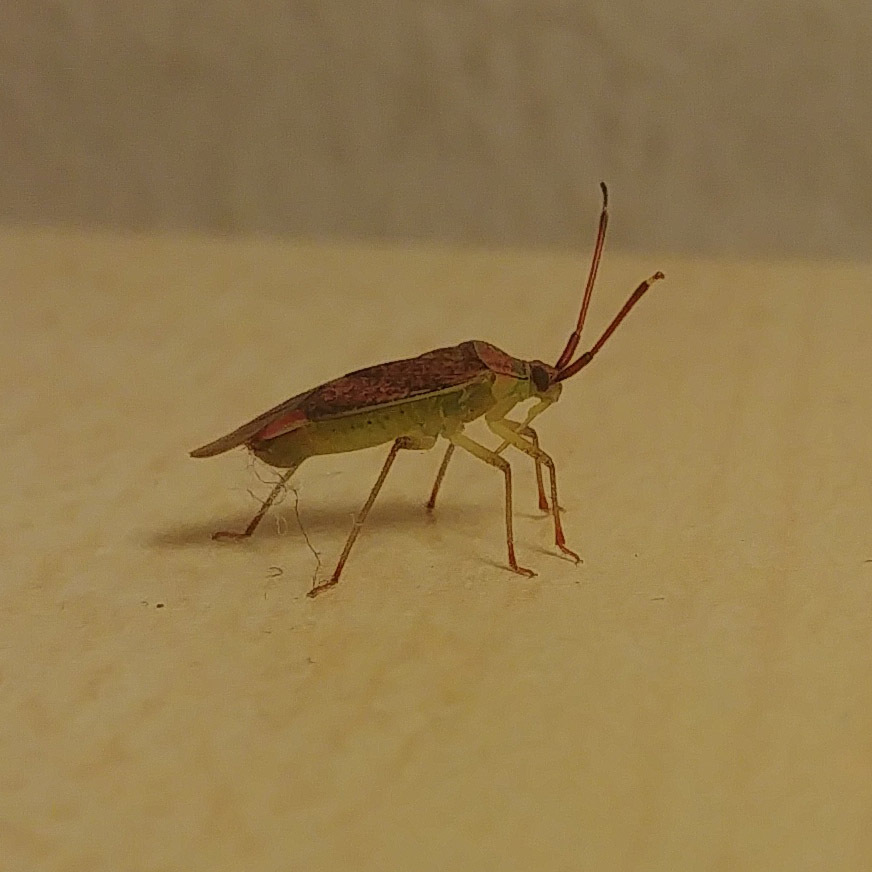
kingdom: Animalia
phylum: Arthropoda
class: Insecta
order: Hemiptera
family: Miridae
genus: Pantilius
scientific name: Pantilius tunicatus
